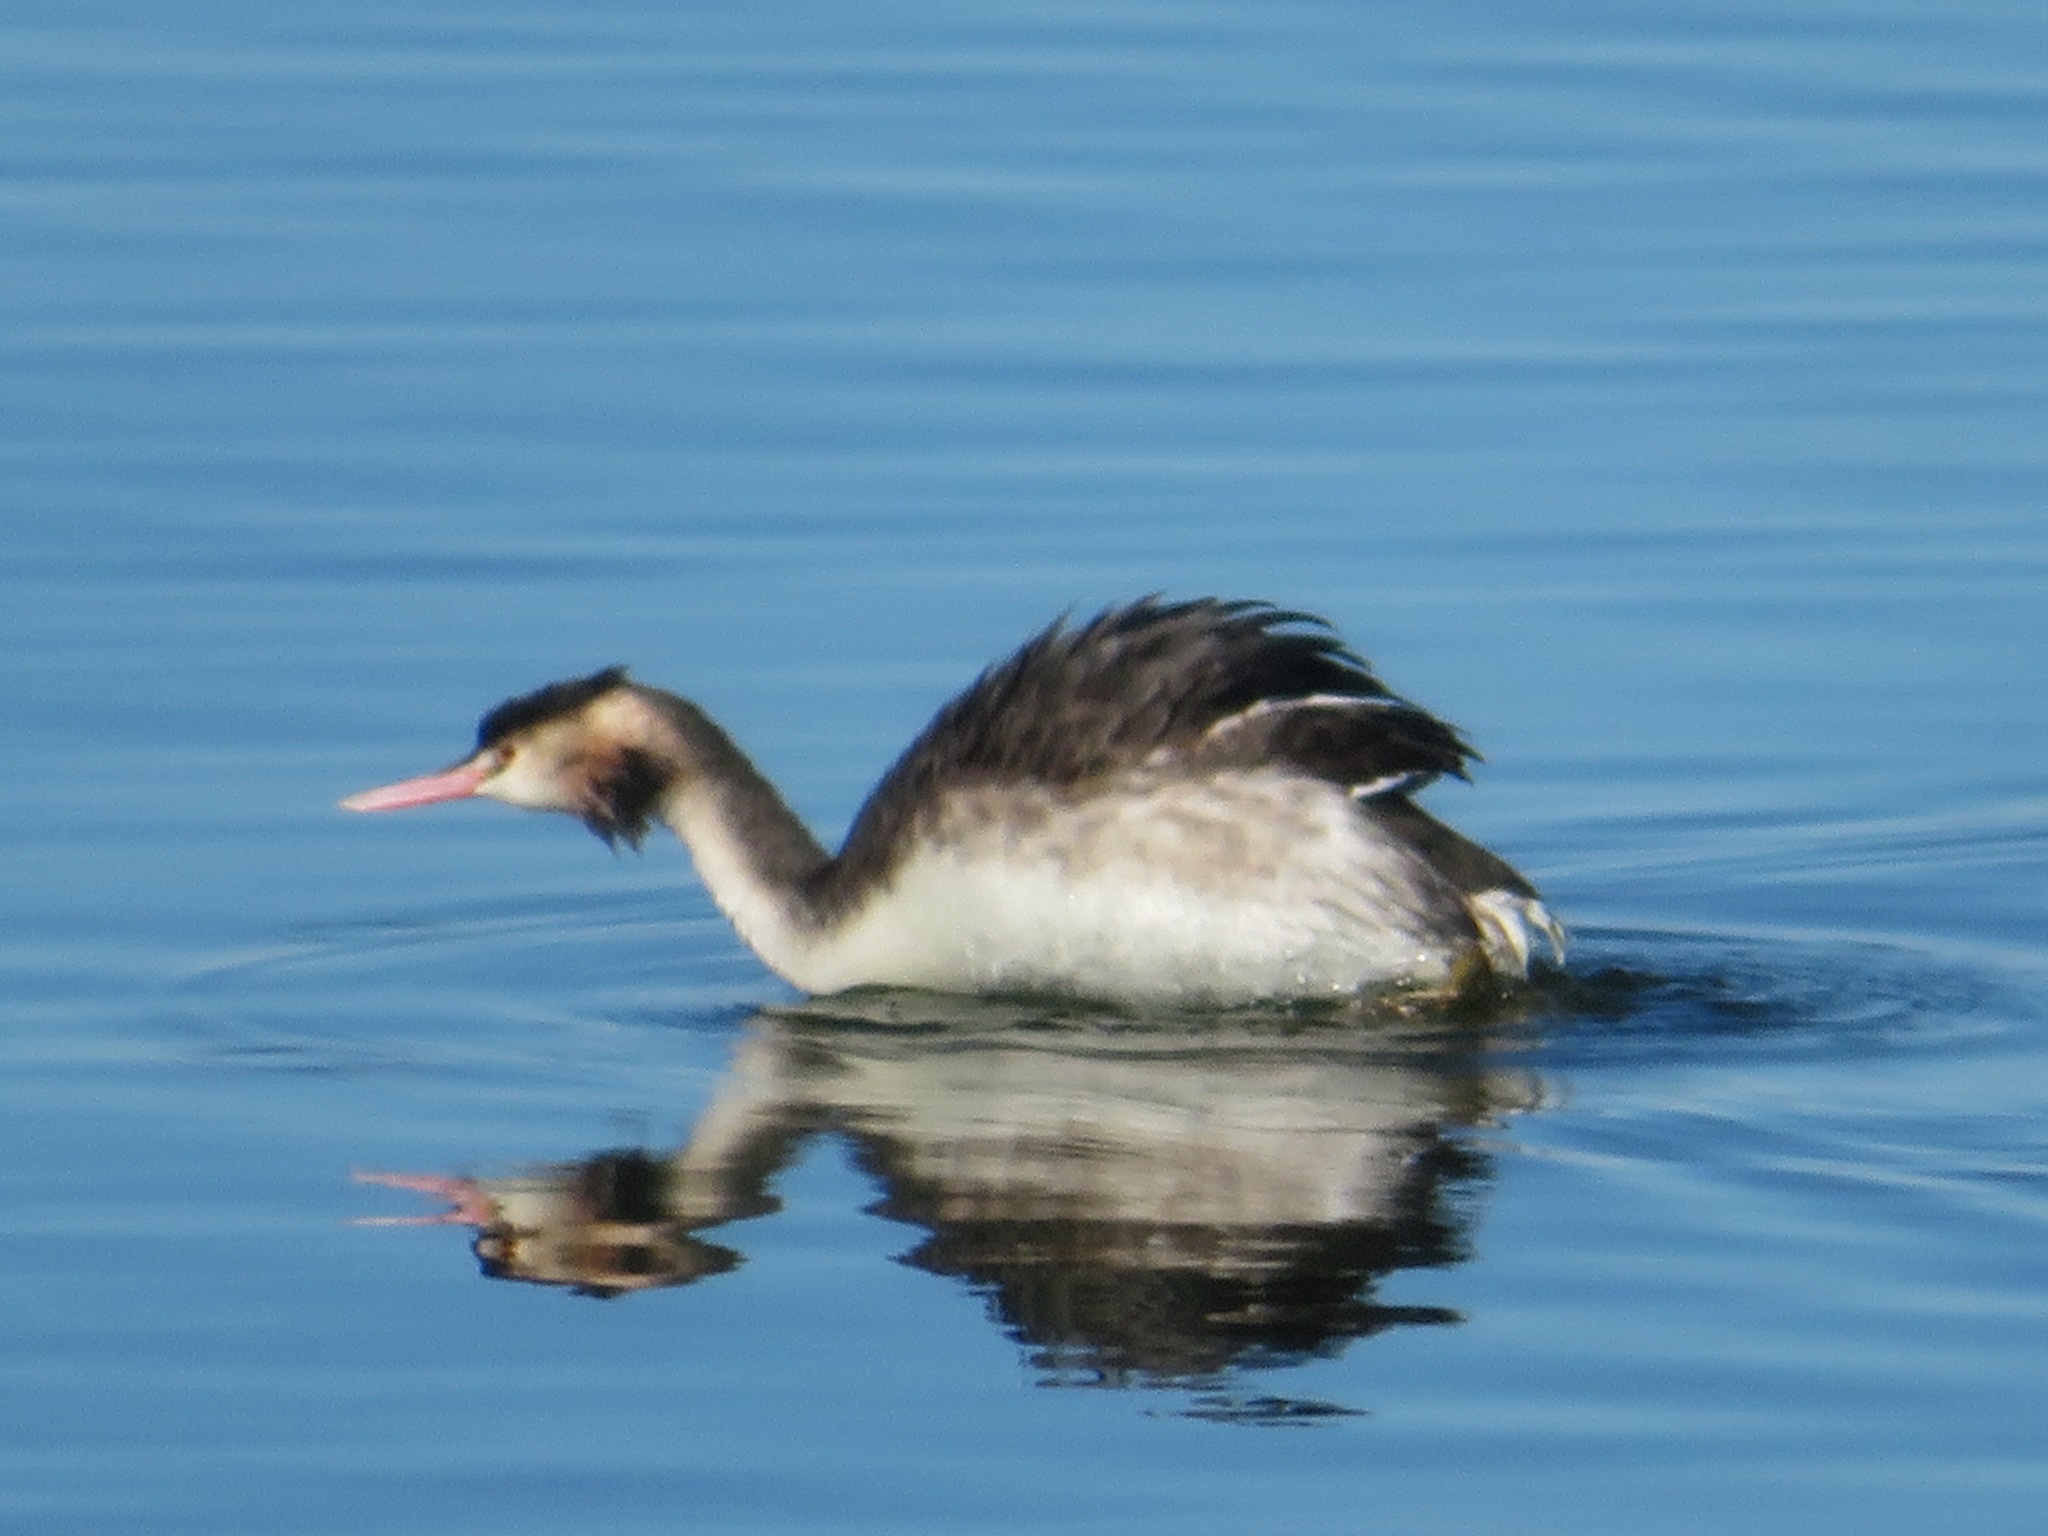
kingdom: Animalia
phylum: Chordata
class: Aves
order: Podicipediformes
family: Podicipedidae
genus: Podiceps
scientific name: Podiceps cristatus
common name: Great crested grebe
